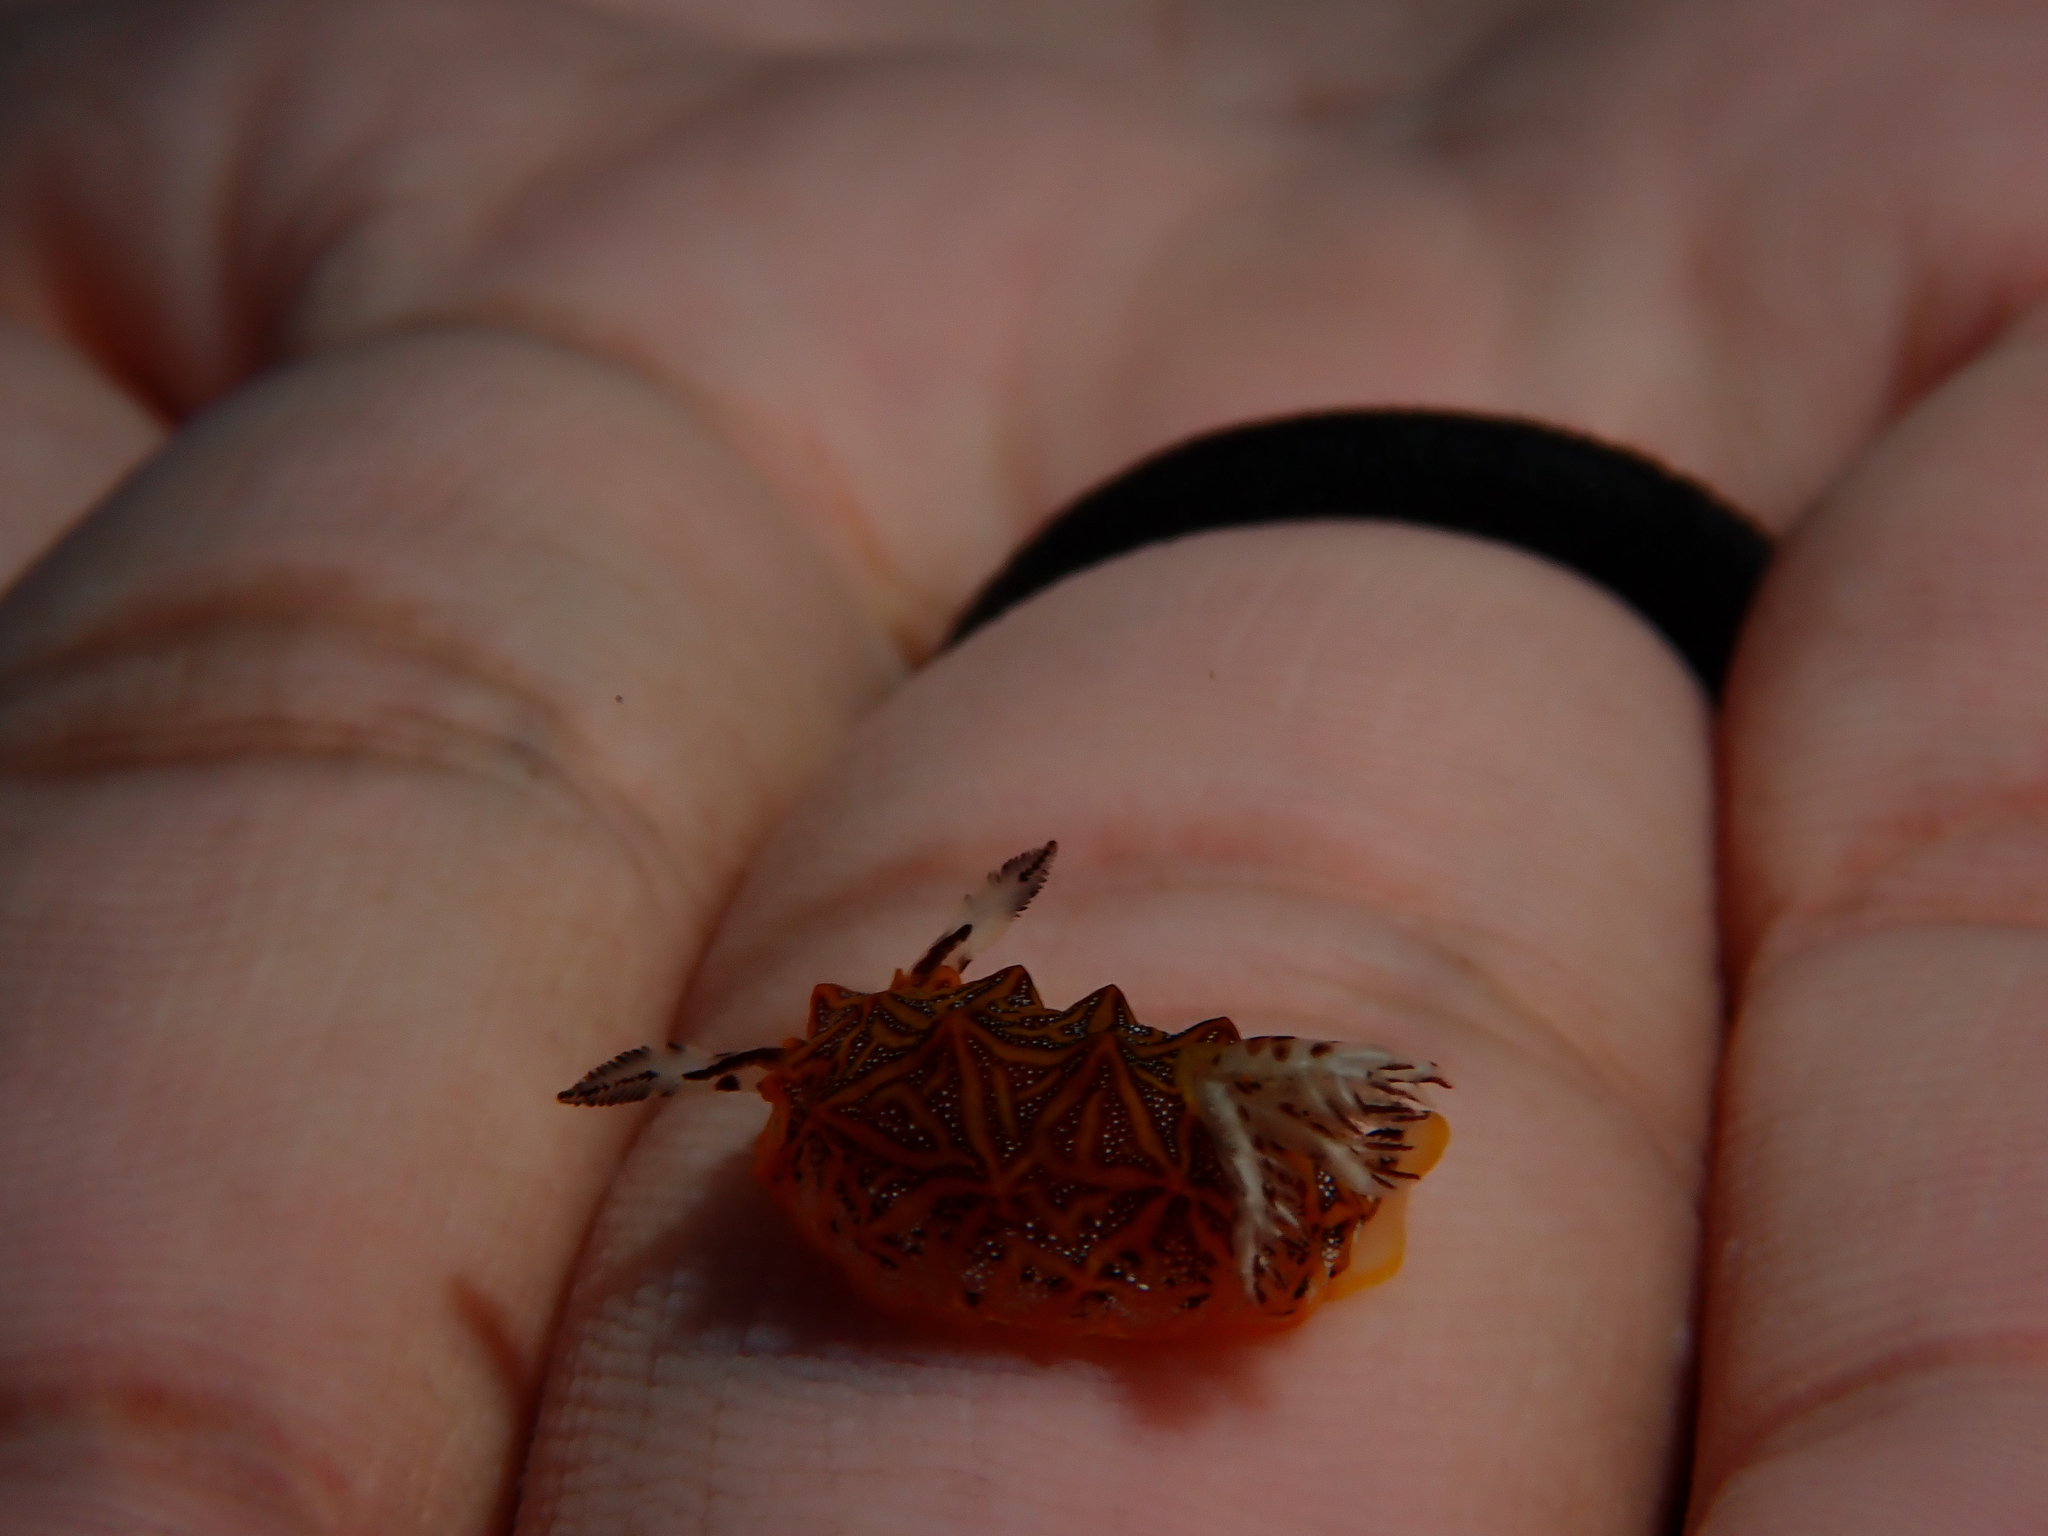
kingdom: Animalia
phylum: Mollusca
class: Gastropoda
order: Nudibranchia
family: Discodorididae
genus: Halgerda
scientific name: Halgerda tessellata
